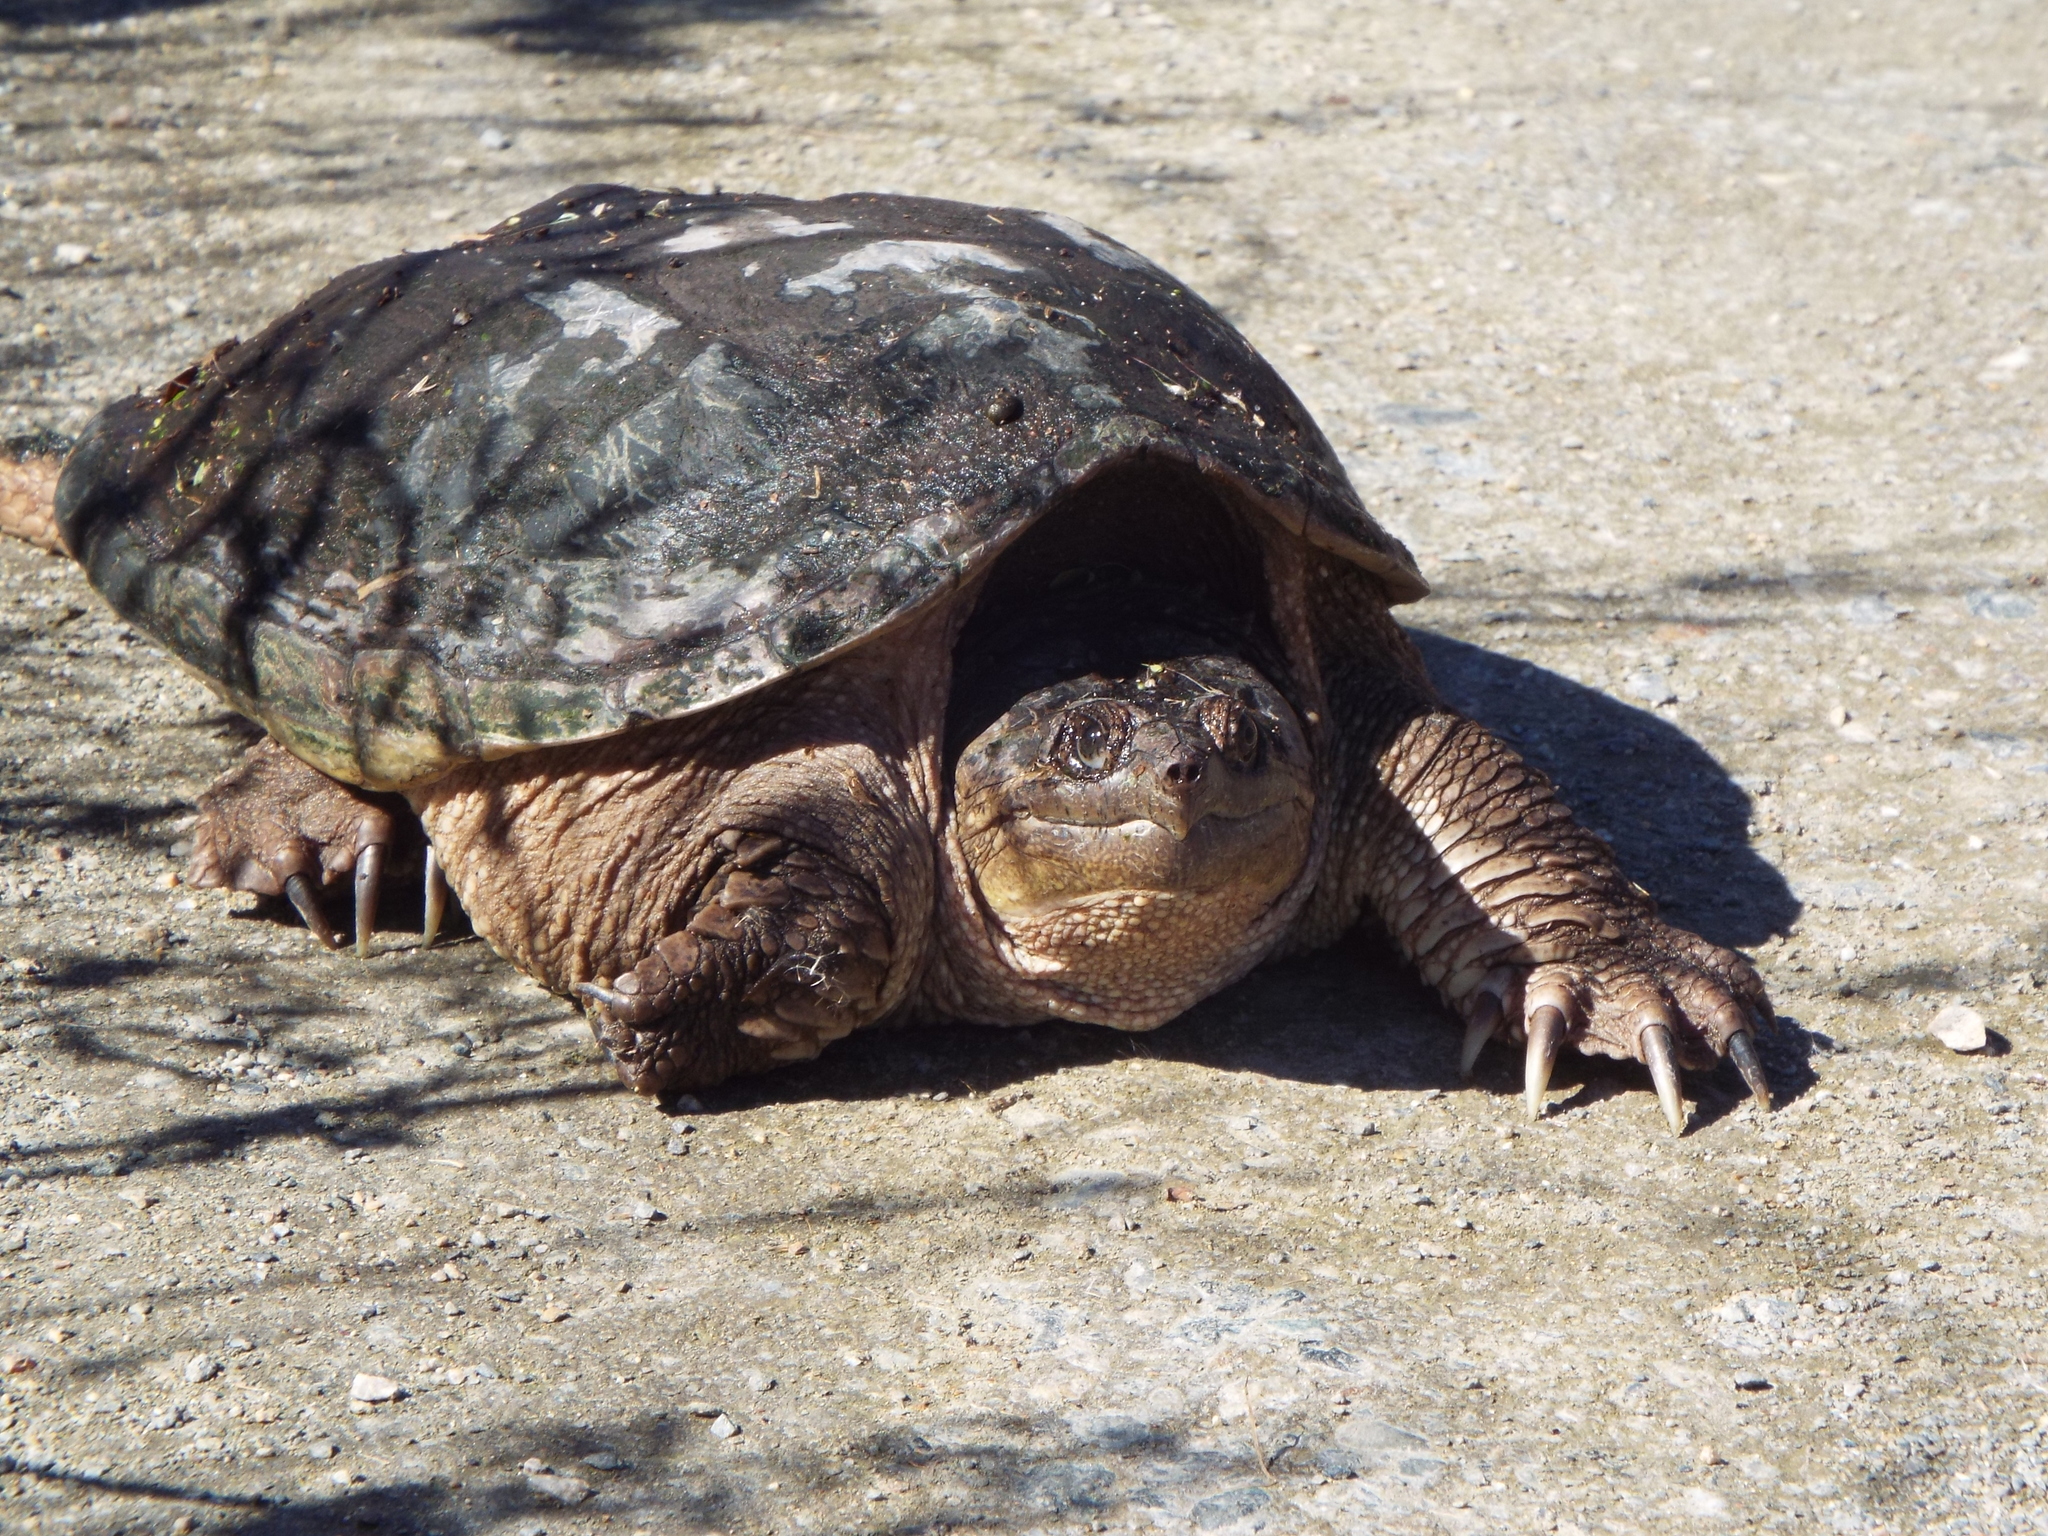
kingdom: Animalia
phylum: Chordata
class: Testudines
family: Chelydridae
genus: Chelydra
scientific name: Chelydra serpentina
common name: Common snapping turtle
